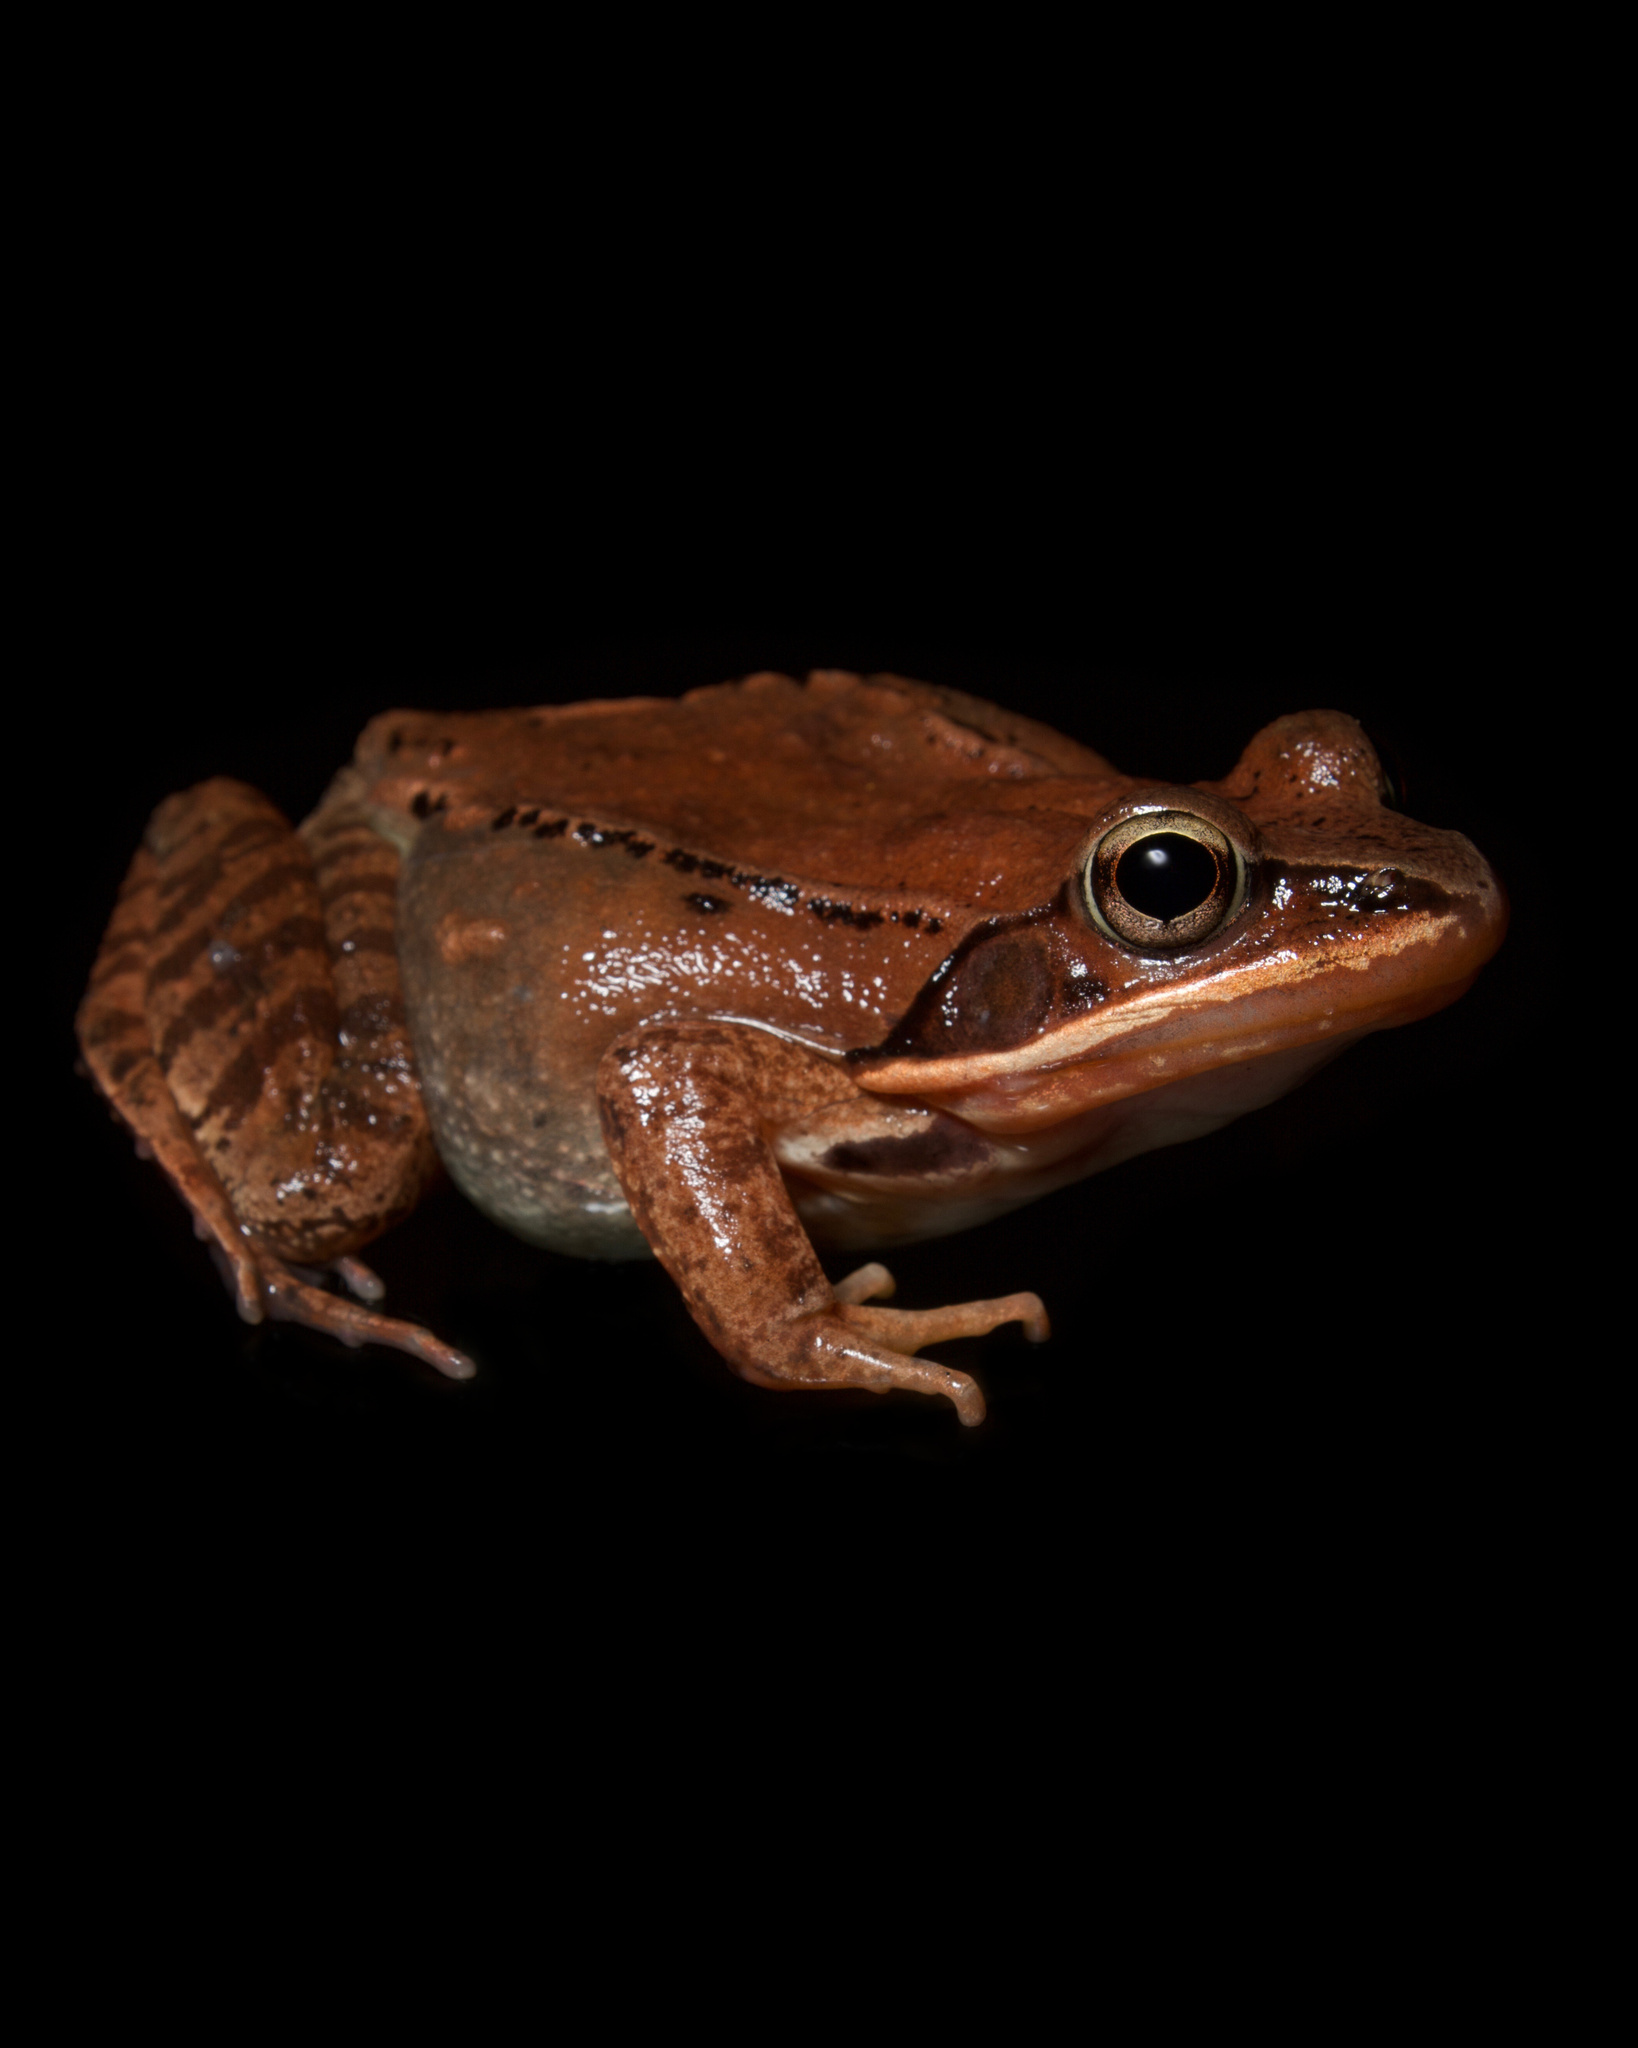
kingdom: Animalia
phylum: Chordata
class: Amphibia
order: Anura
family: Ranidae
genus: Lithobates
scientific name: Lithobates sylvaticus
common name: Wood frog
